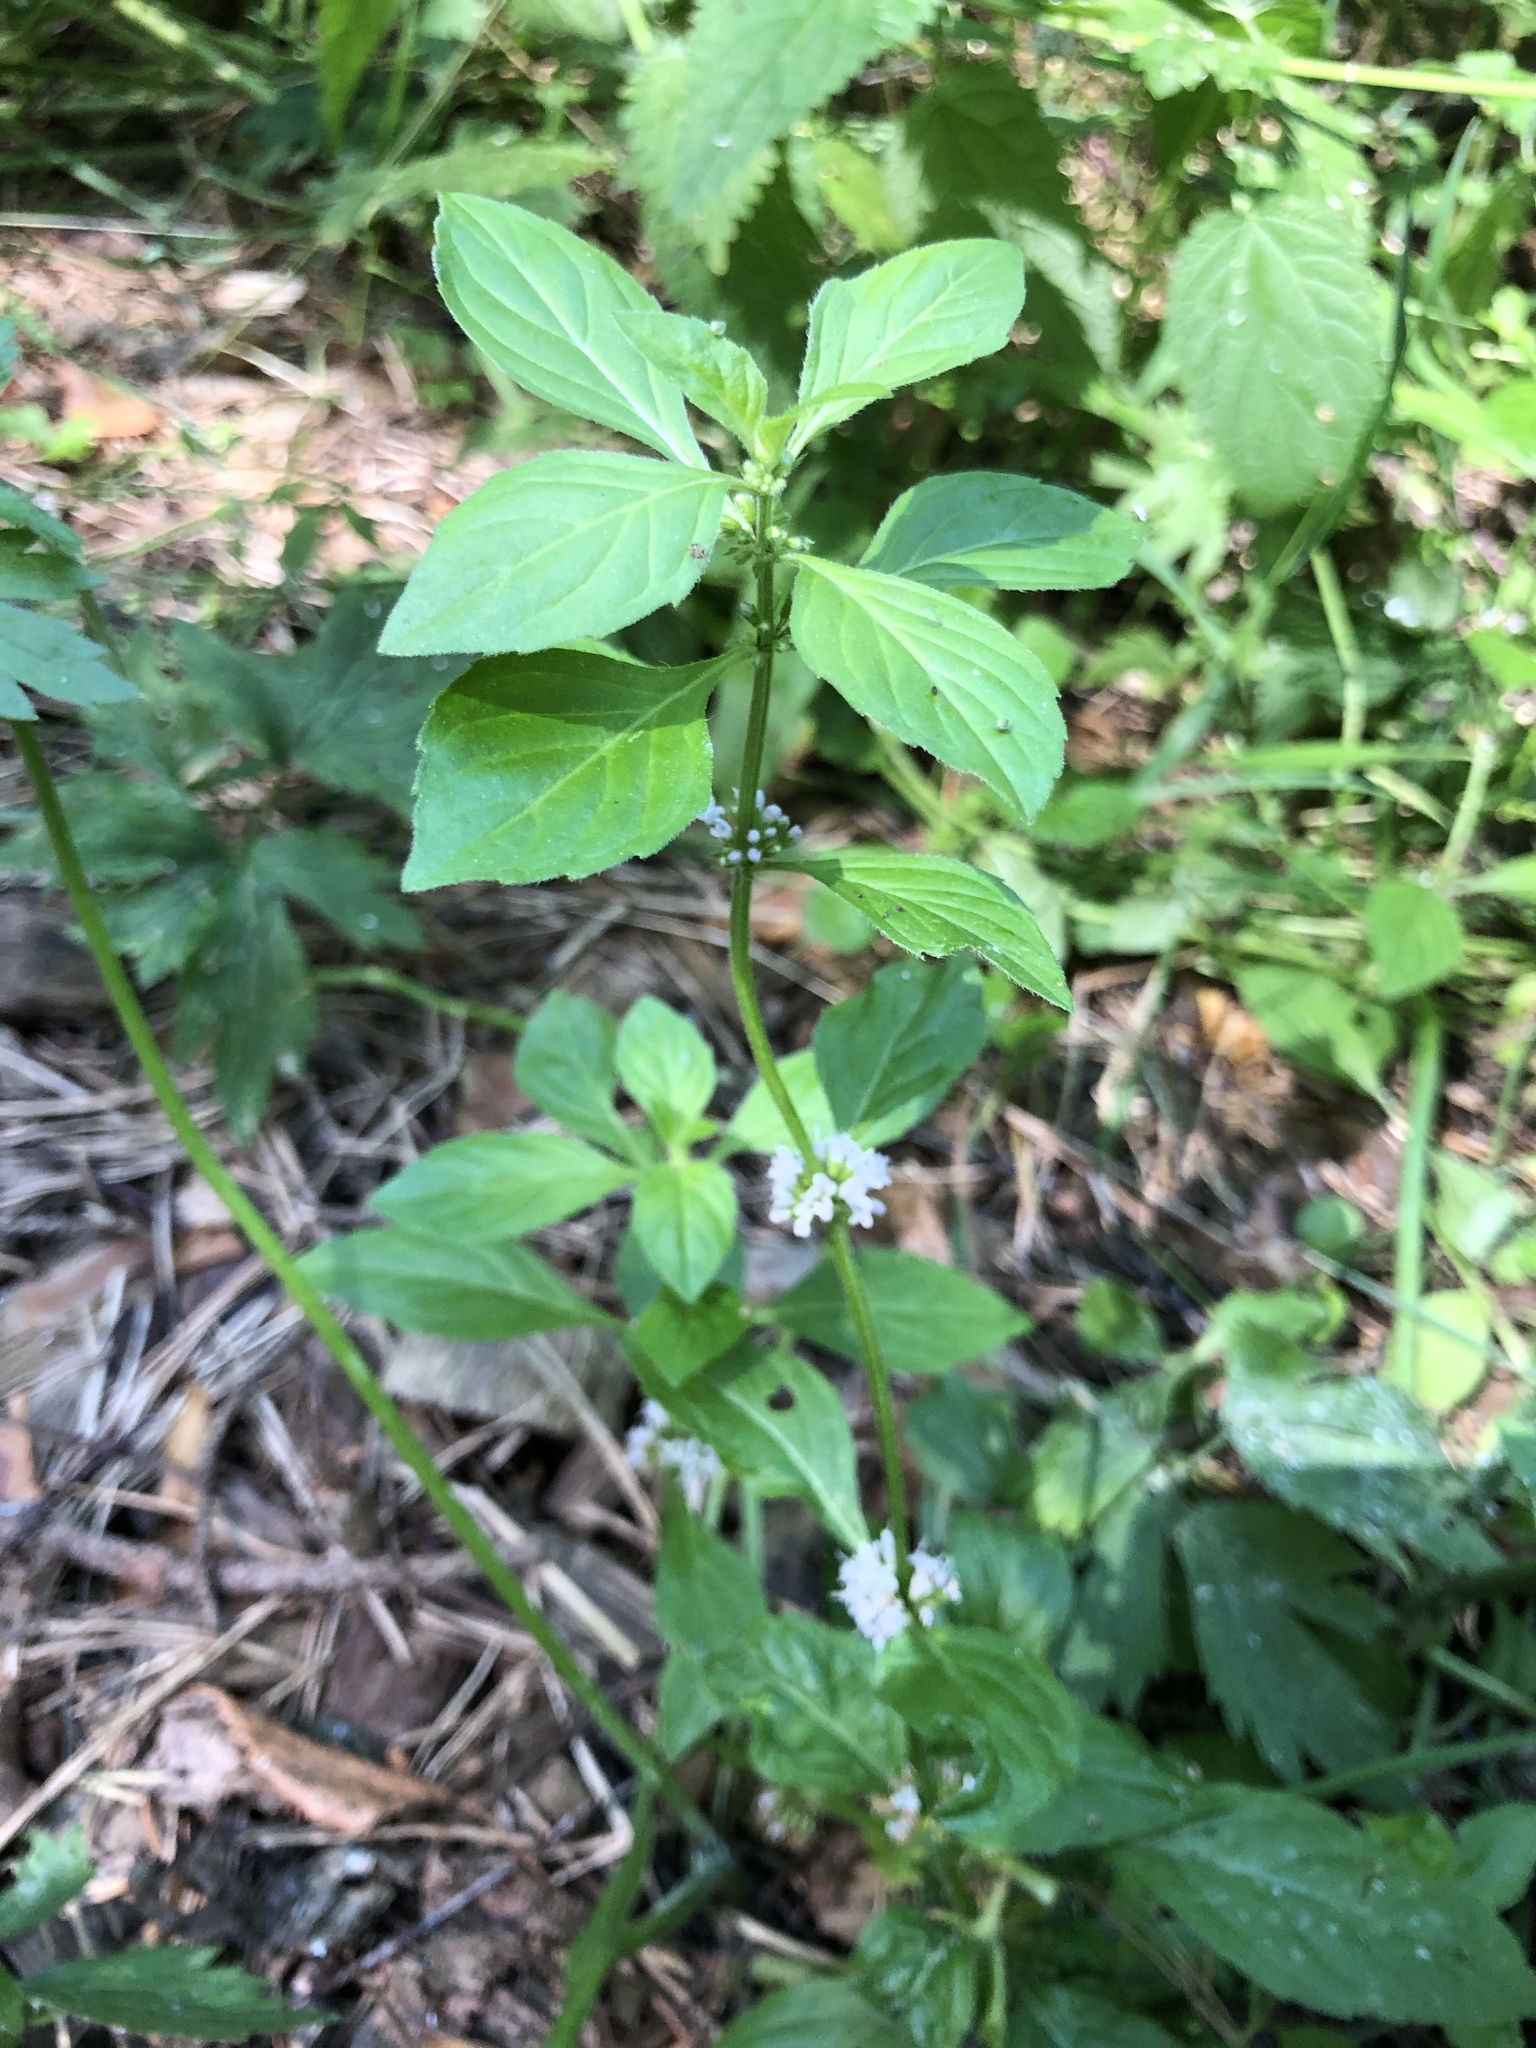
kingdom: Plantae
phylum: Tracheophyta
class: Magnoliopsida
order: Lamiales
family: Lamiaceae
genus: Mentha
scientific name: Mentha arvensis
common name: Corn mint
